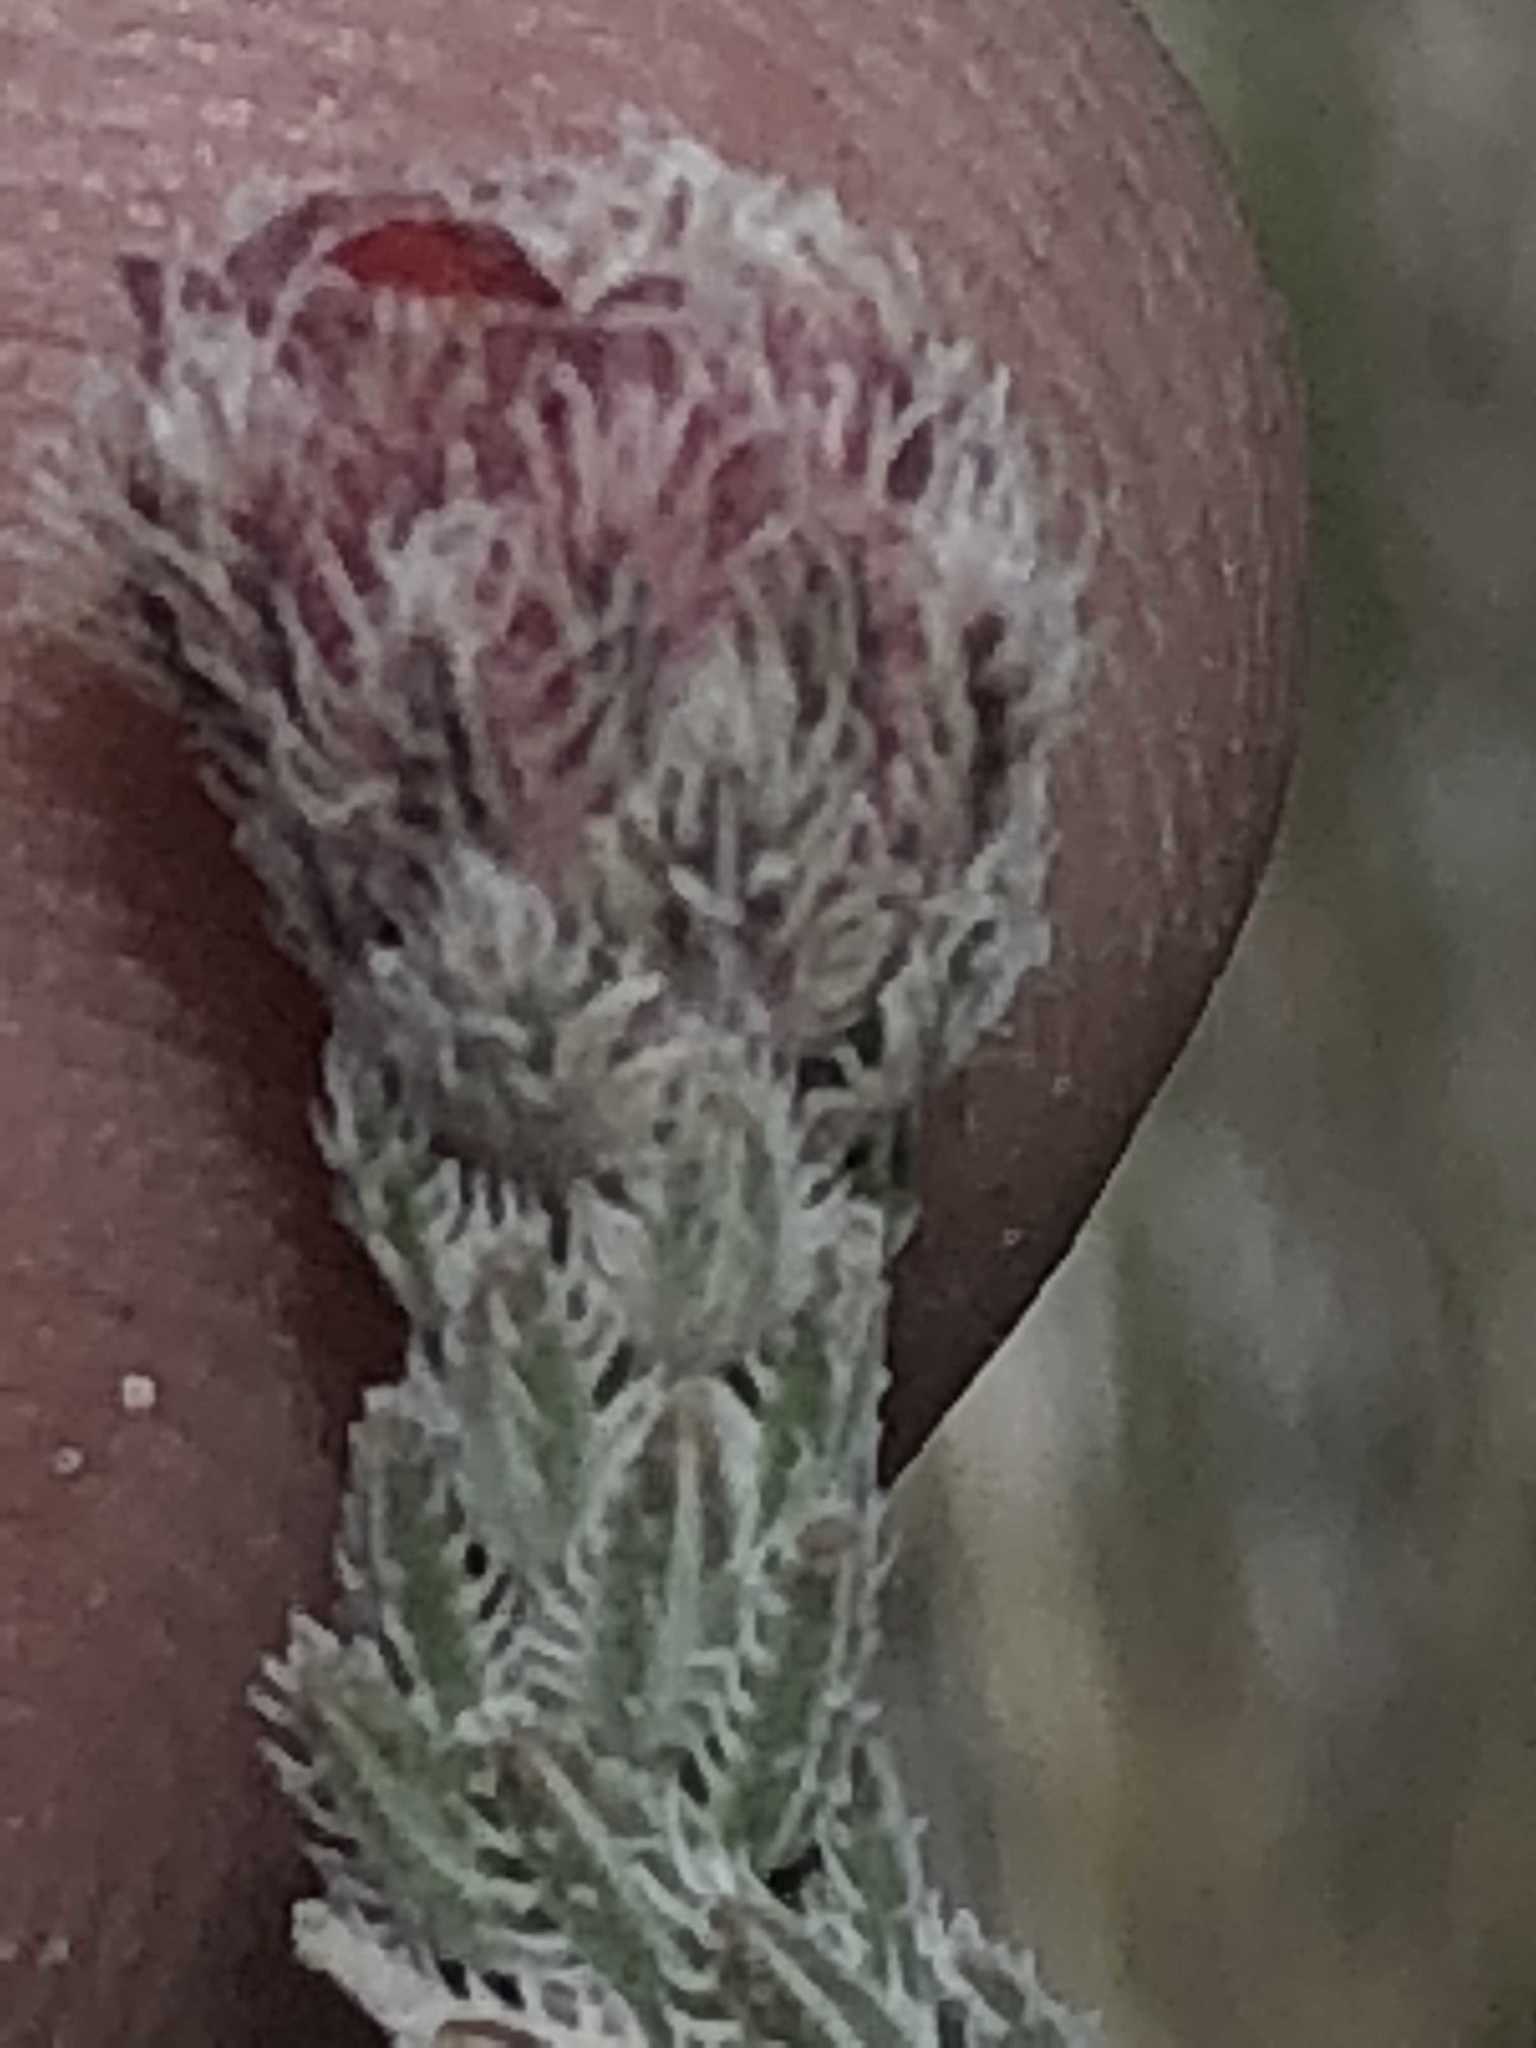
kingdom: Plantae
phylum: Tracheophyta
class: Magnoliopsida
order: Ericales
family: Ericaceae
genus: Erica
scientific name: Erica strigilifolia
